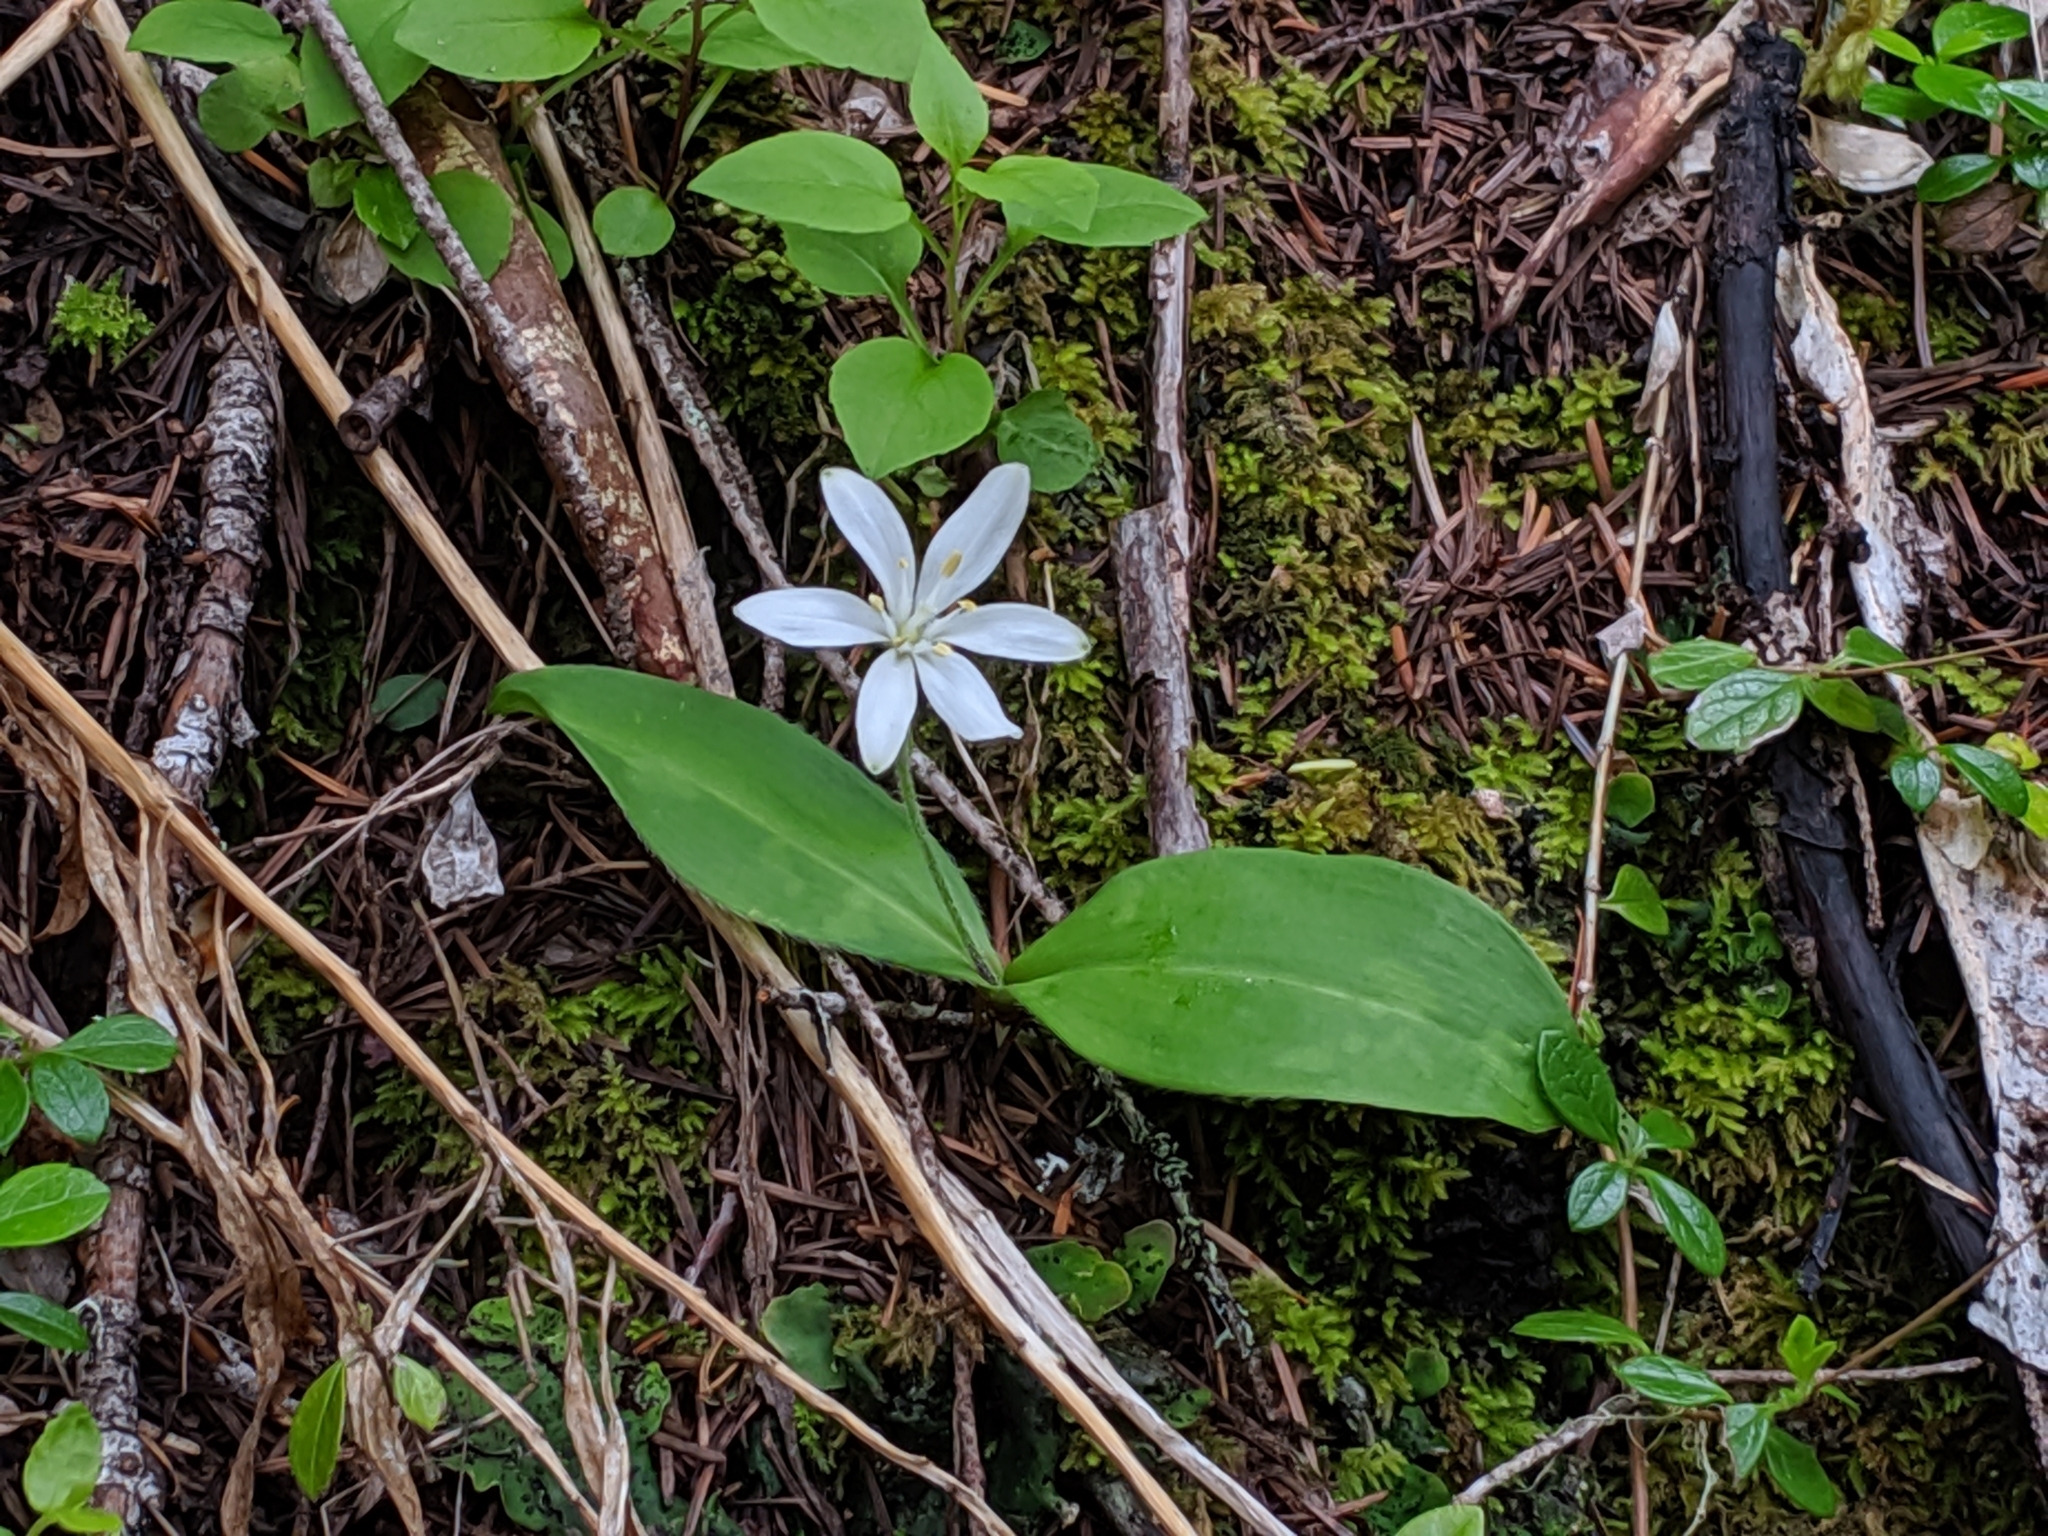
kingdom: Plantae
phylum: Tracheophyta
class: Liliopsida
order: Liliales
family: Liliaceae
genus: Clintonia
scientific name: Clintonia uniflora
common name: Queen's cup
